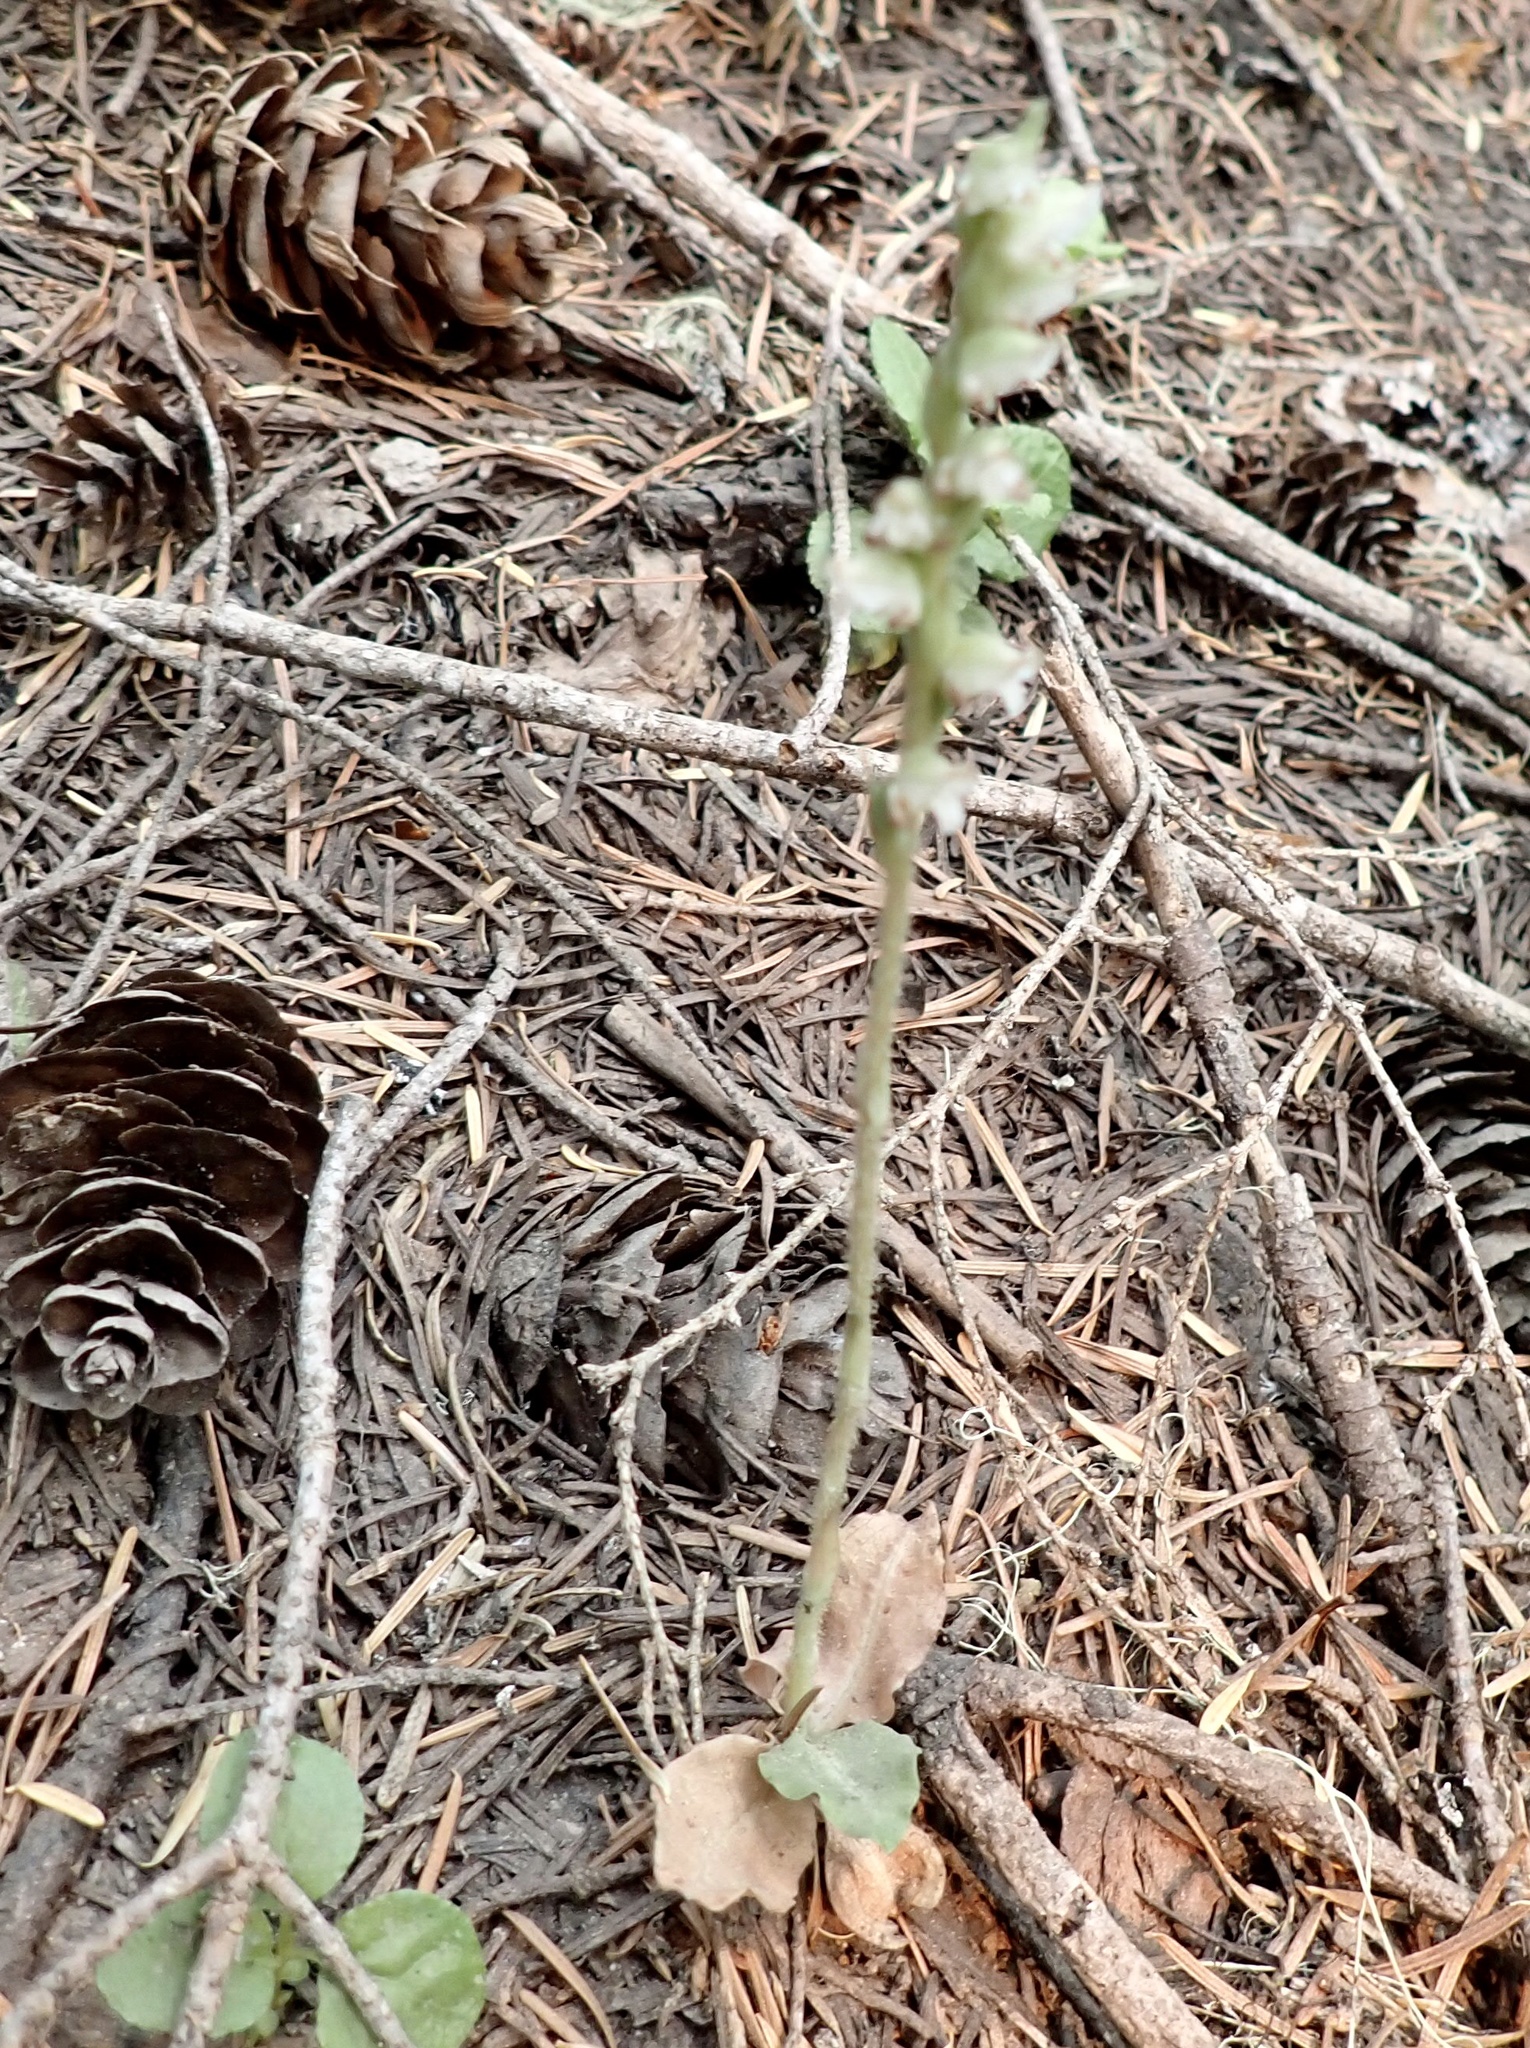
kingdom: Plantae
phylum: Tracheophyta
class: Liliopsida
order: Asparagales
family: Orchidaceae
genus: Goodyera
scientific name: Goodyera oblongifolia
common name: Giant rattlesnake-plantain
